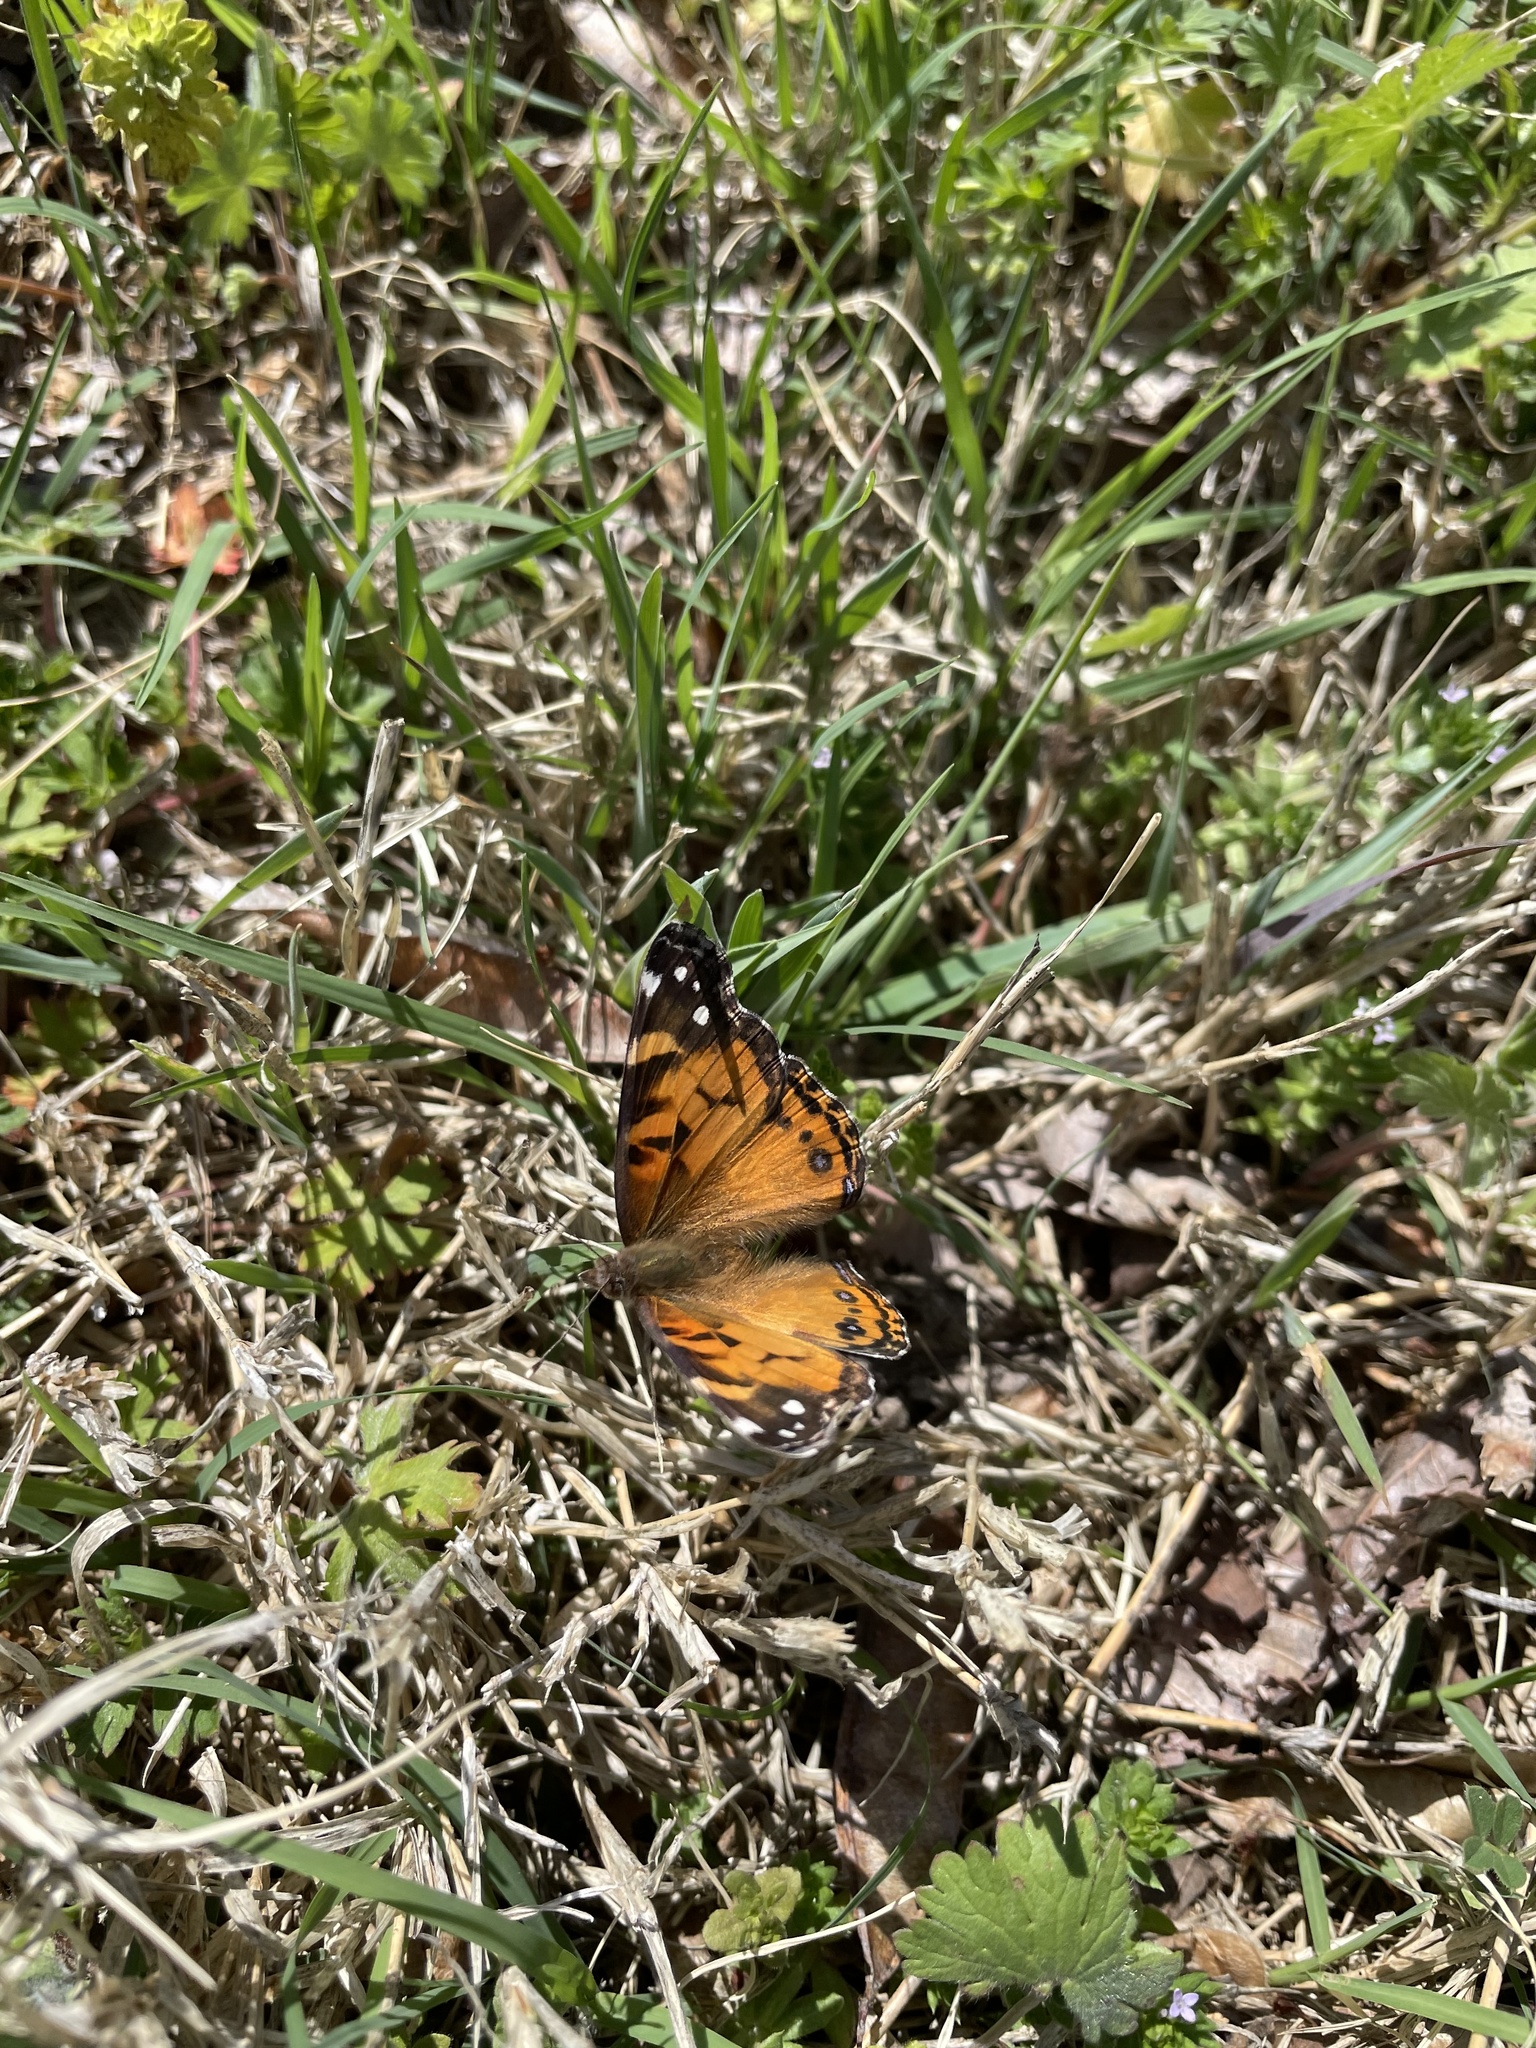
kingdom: Animalia
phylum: Arthropoda
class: Insecta
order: Lepidoptera
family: Nymphalidae
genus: Vanessa
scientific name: Vanessa virginiensis
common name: American lady
